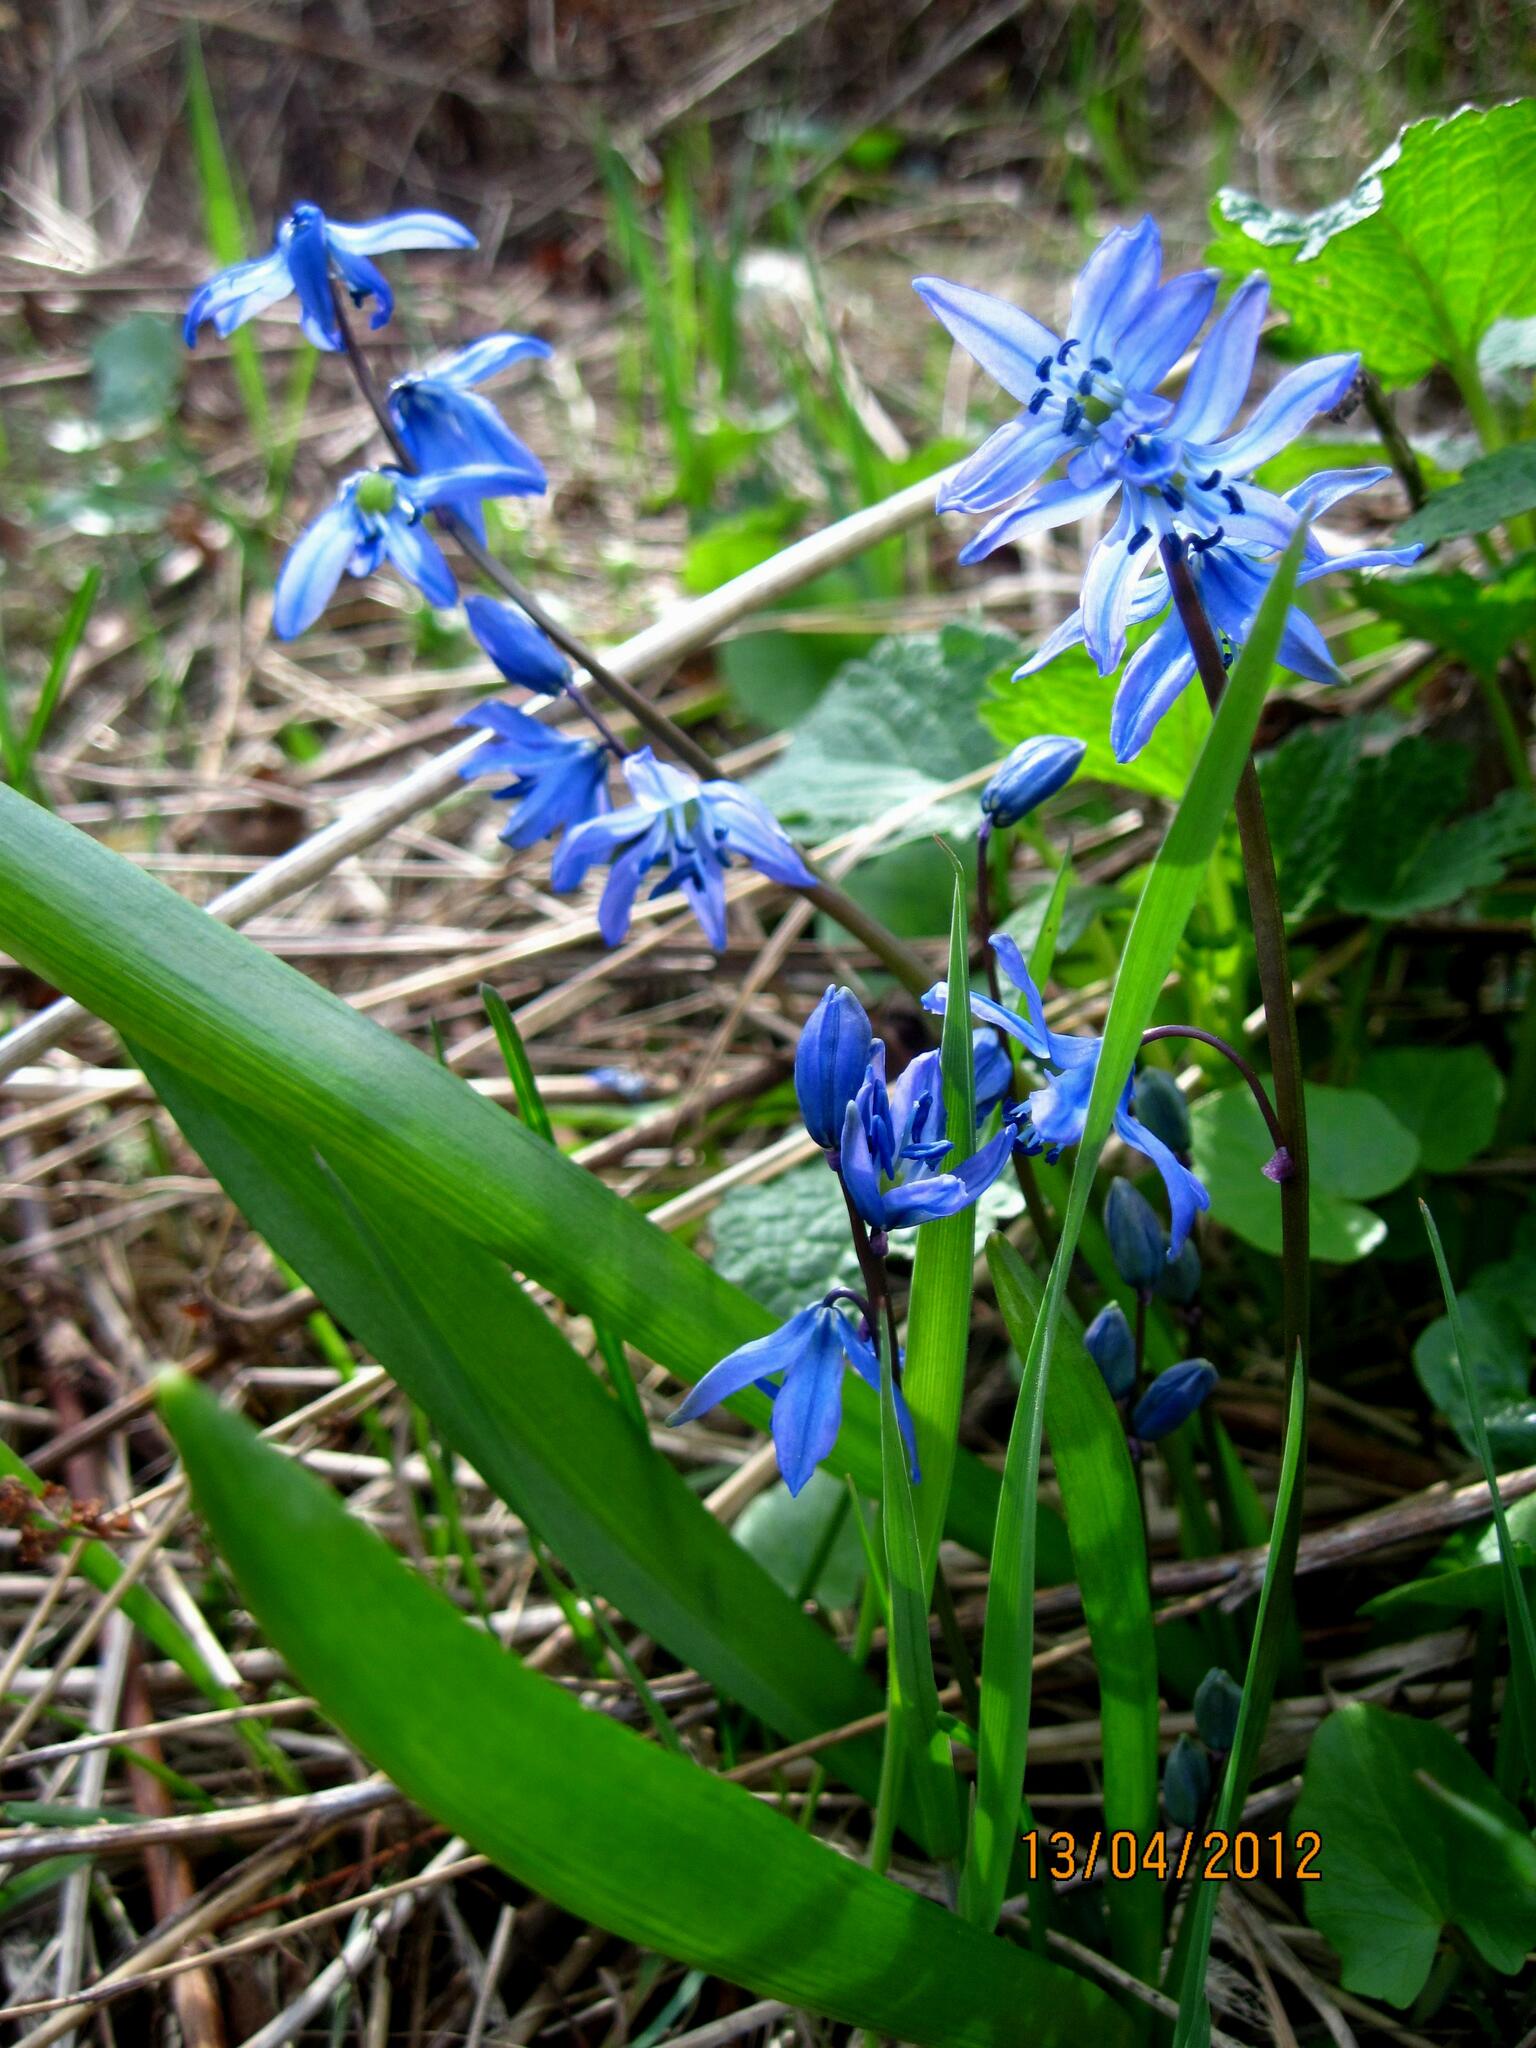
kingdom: Plantae
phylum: Tracheophyta
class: Liliopsida
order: Asparagales
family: Asparagaceae
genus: Scilla
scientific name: Scilla siberica
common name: Siberian squill
